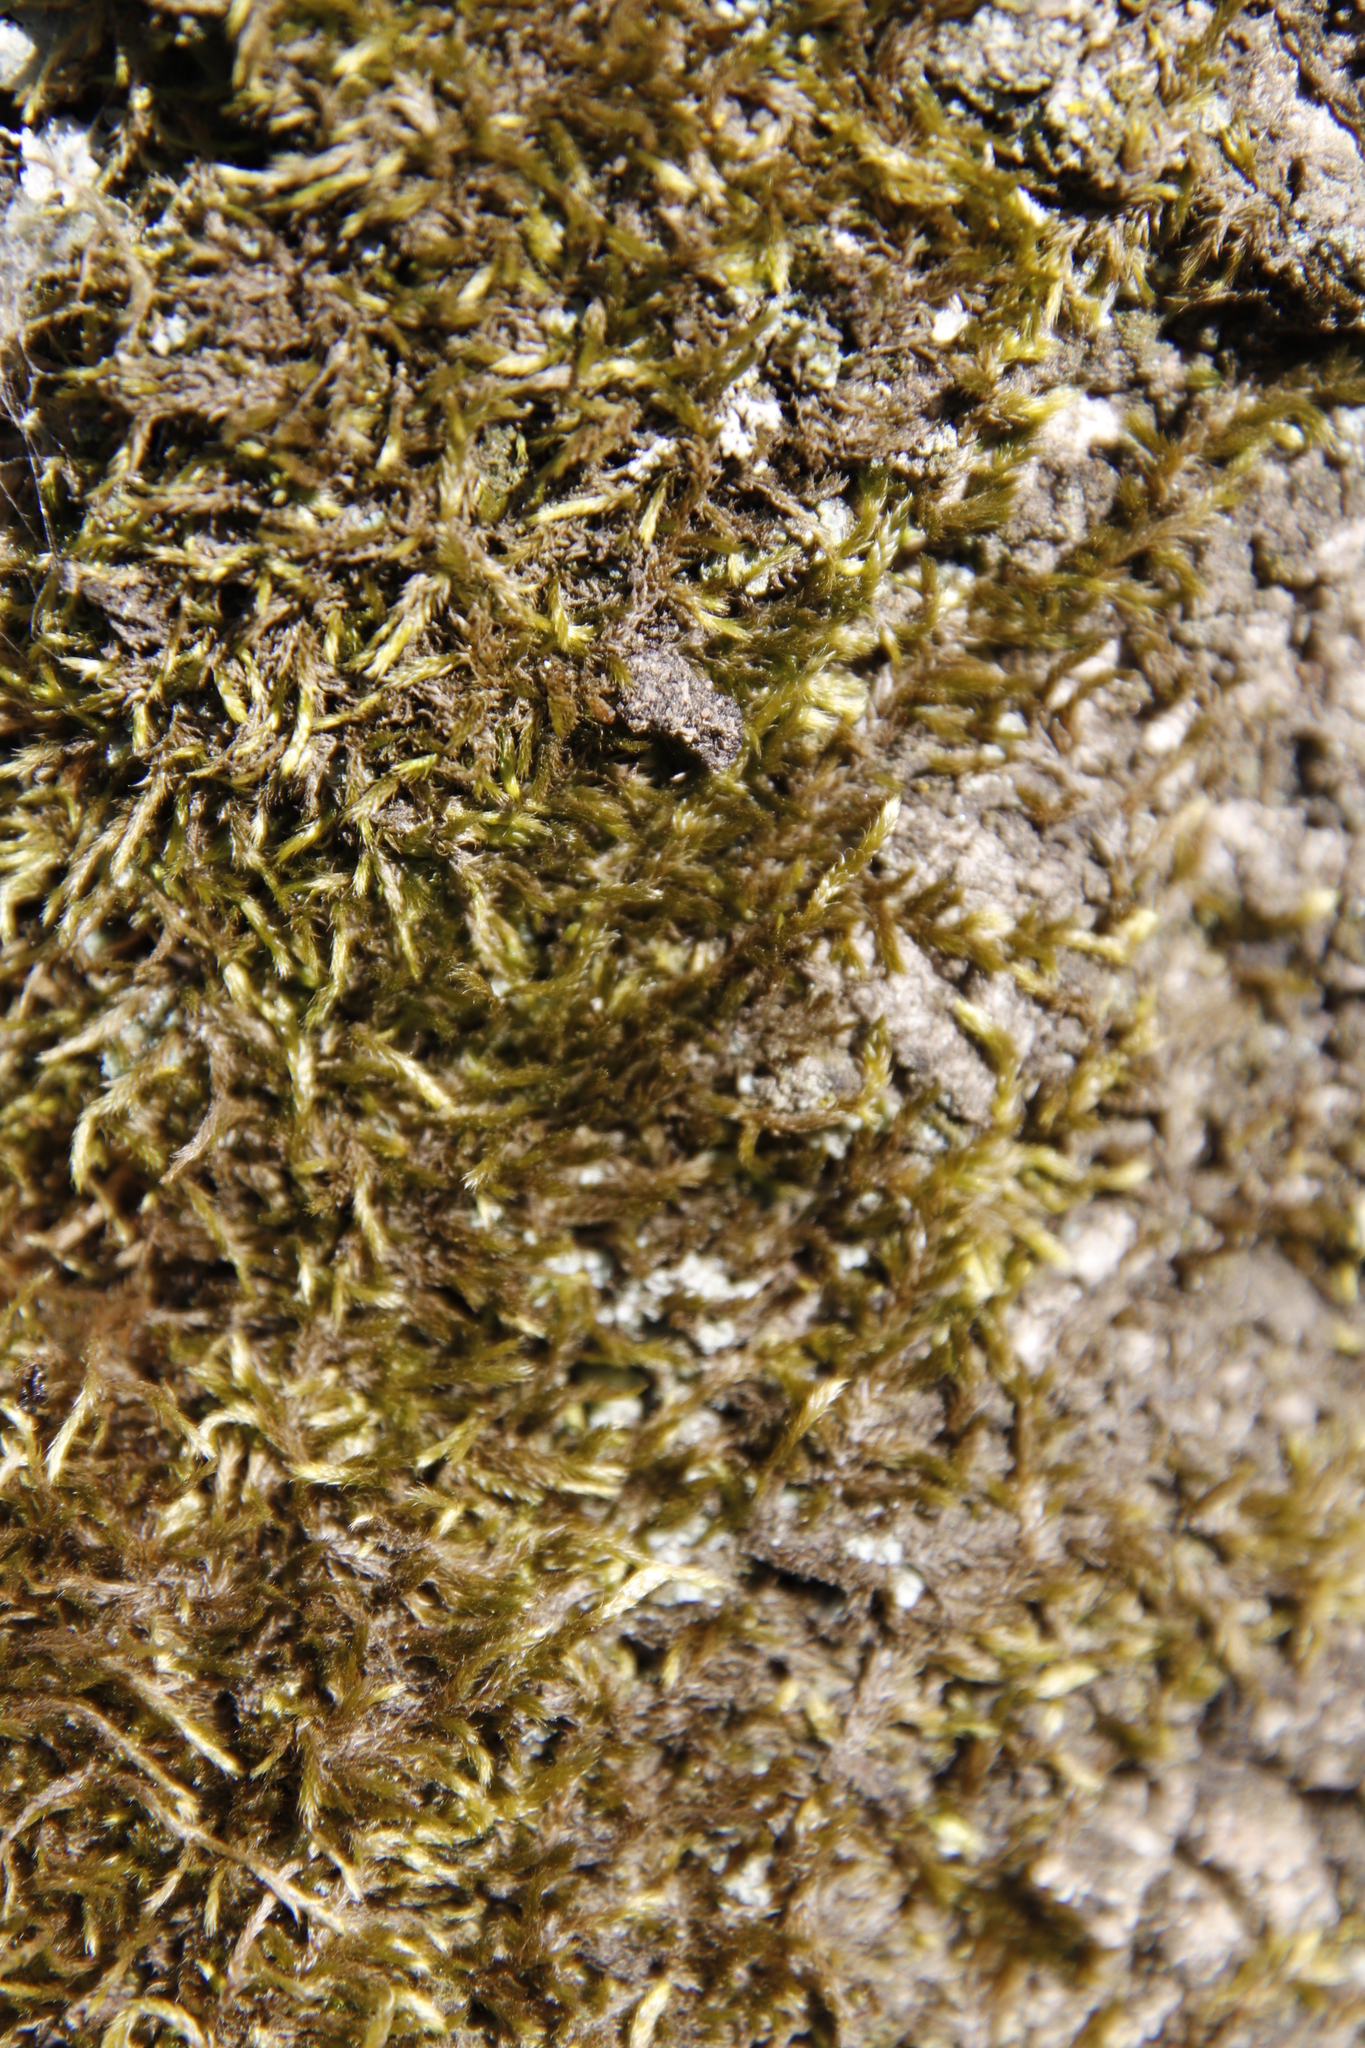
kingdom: Plantae
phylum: Bryophyta
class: Bryopsida
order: Hypnales
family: Fabroniaceae
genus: Ischyrodon
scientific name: Ischyrodon lepturus
